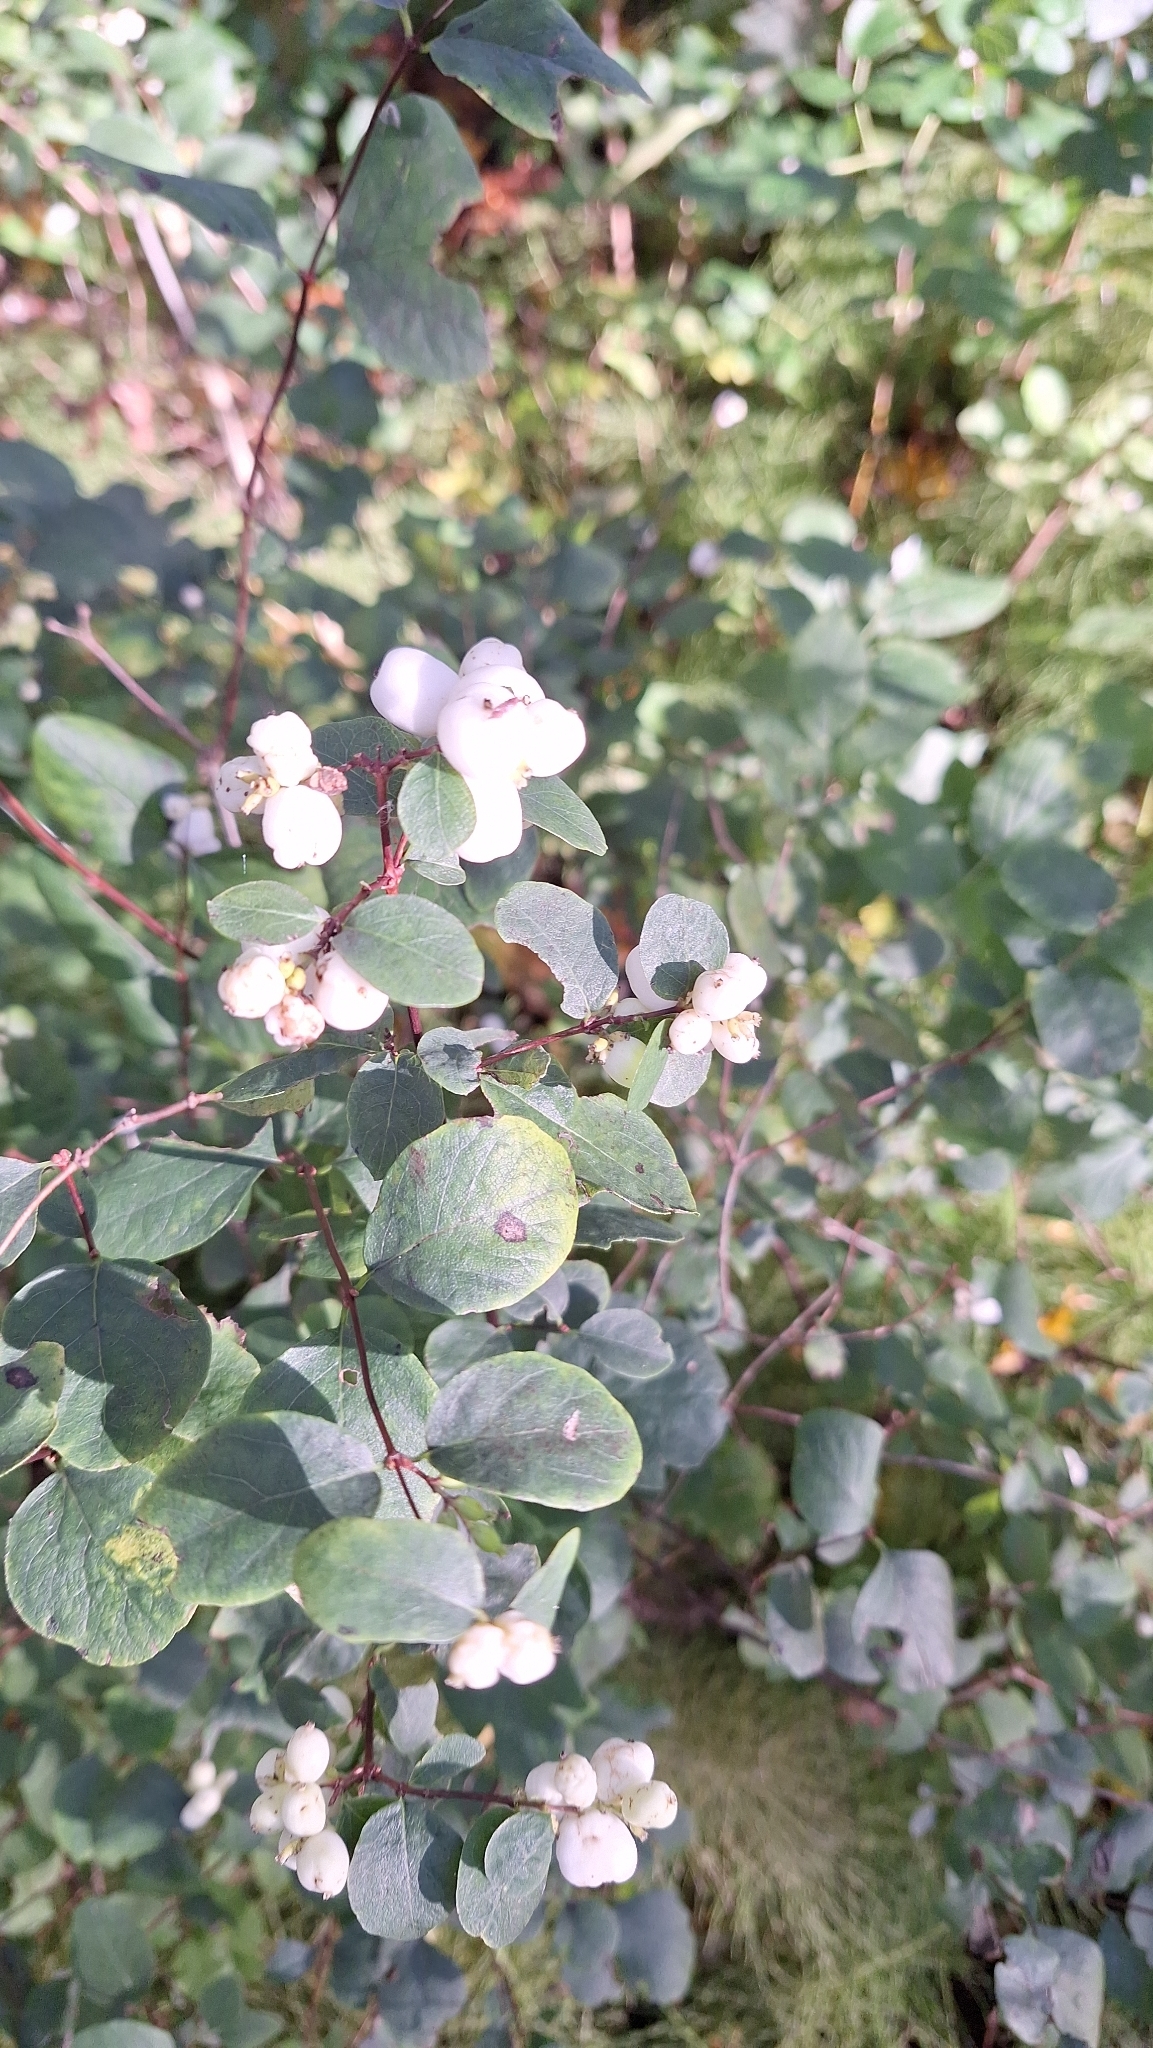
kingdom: Plantae
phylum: Tracheophyta
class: Magnoliopsida
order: Dipsacales
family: Caprifoliaceae
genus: Symphoricarpos
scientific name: Symphoricarpos albus
